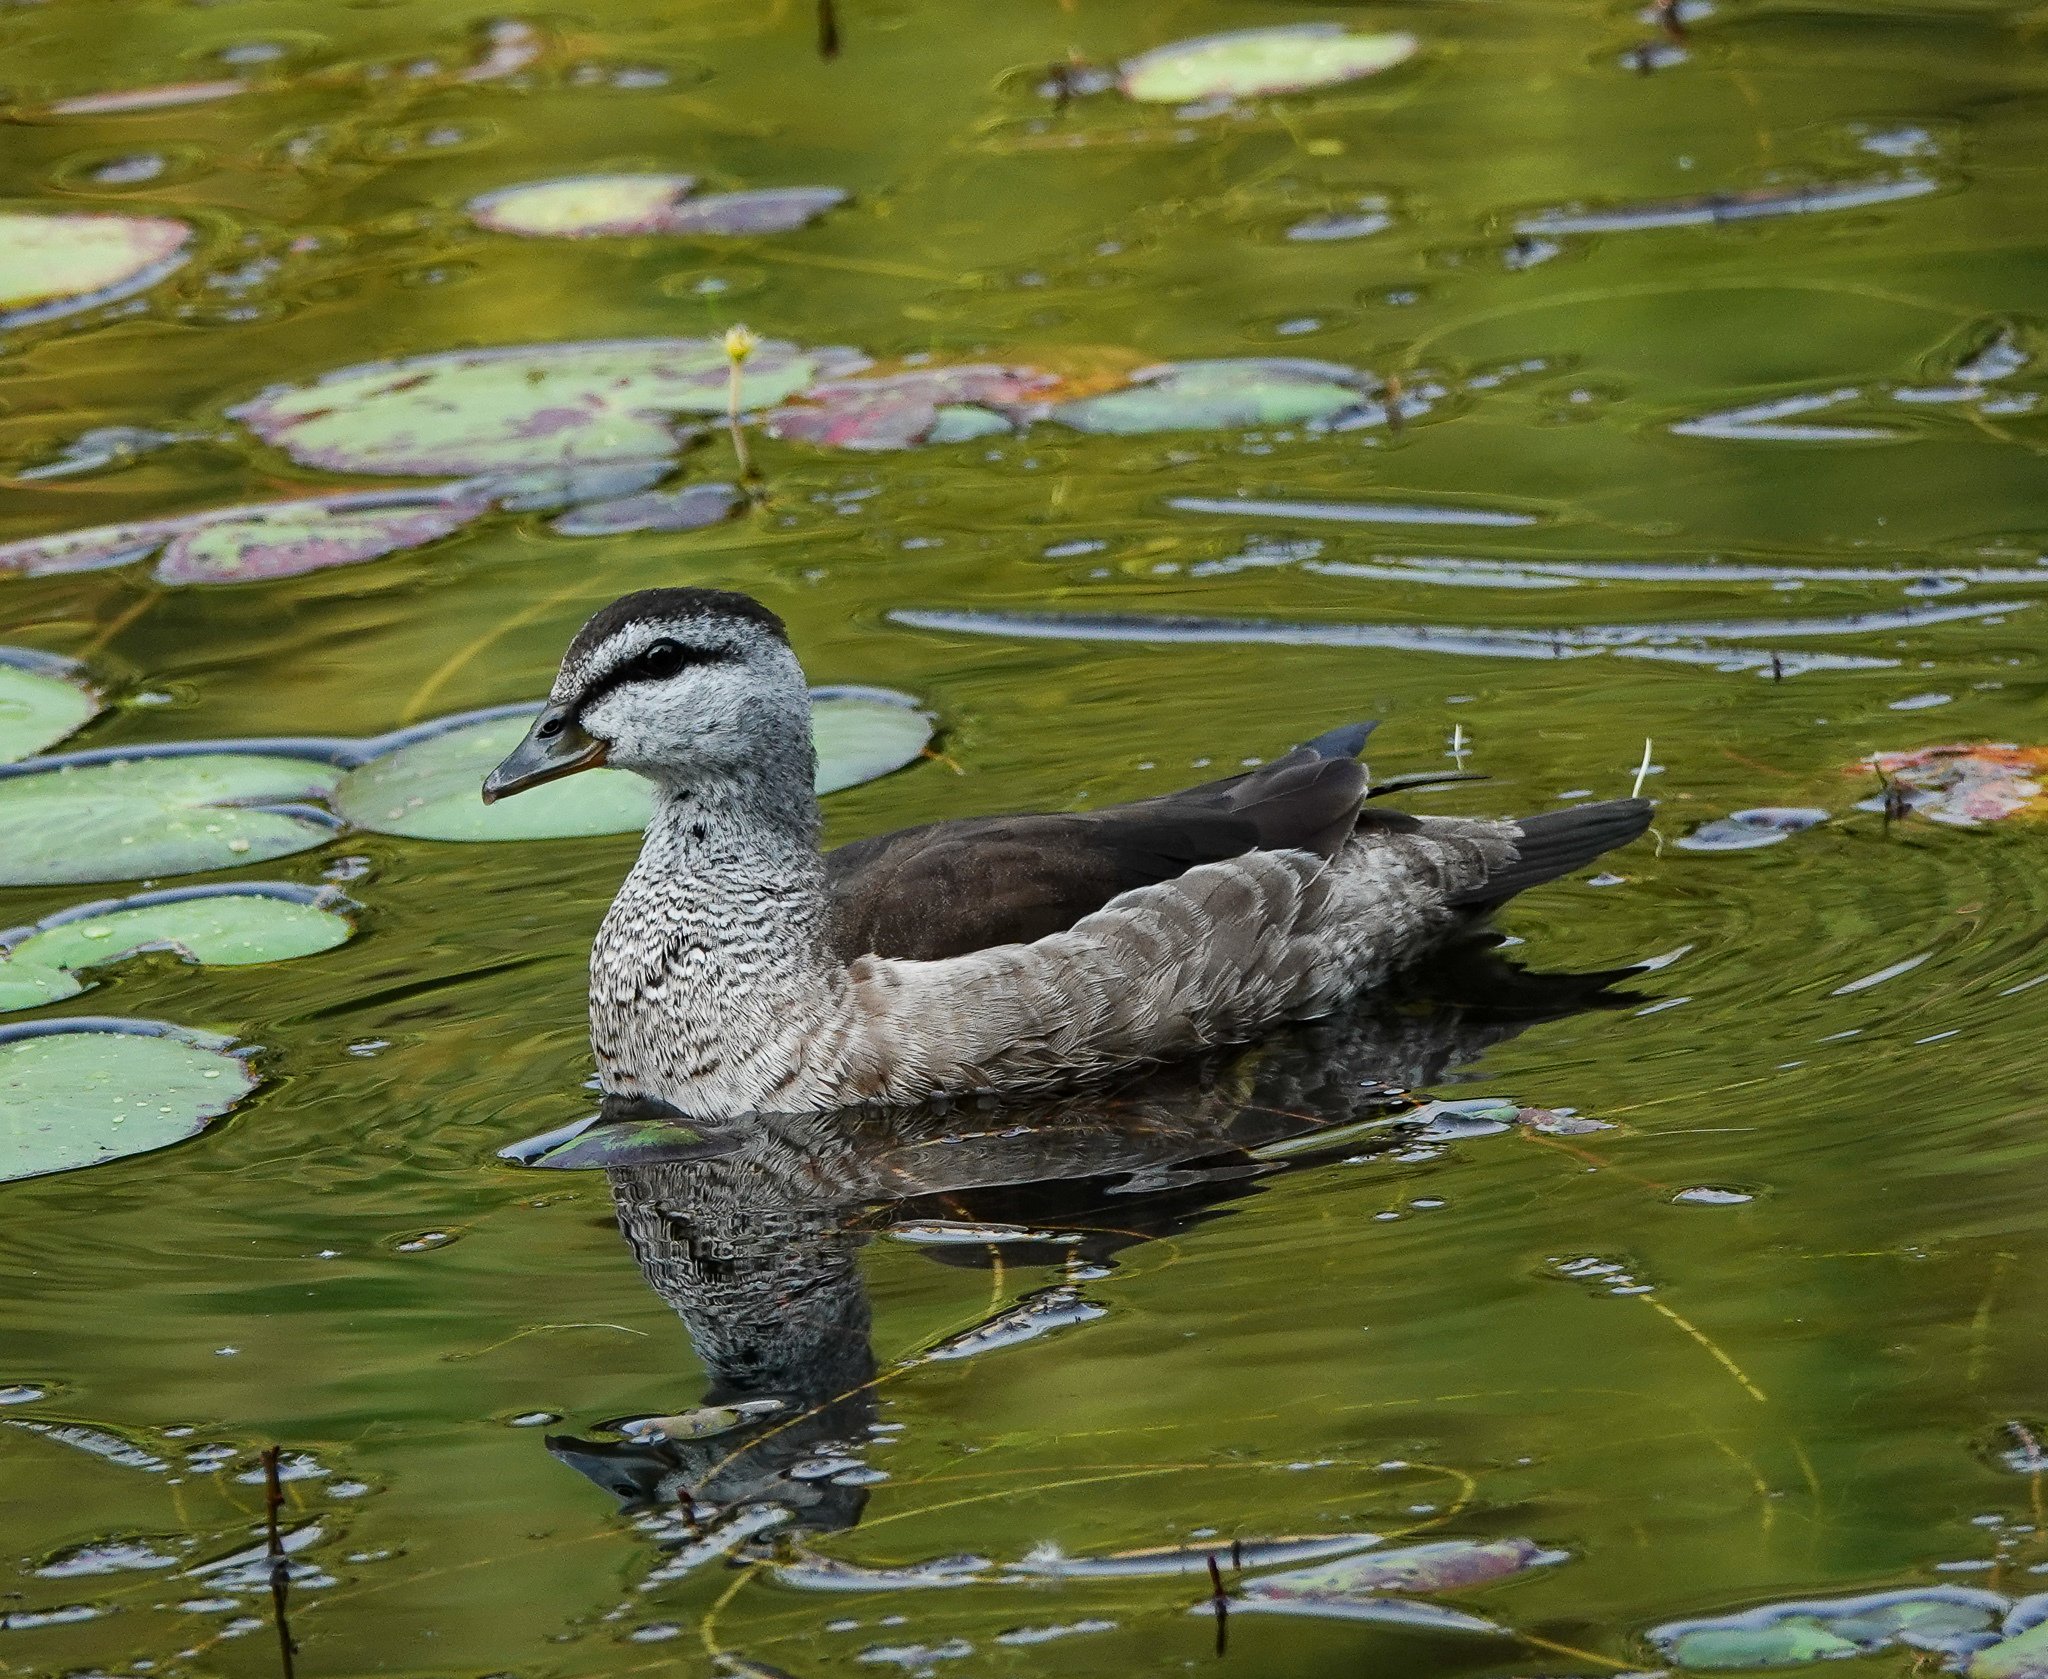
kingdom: Animalia
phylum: Chordata
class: Aves
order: Anseriformes
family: Anatidae
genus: Nettapus
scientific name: Nettapus coromandelianus
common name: Cotton pygmy-goose
